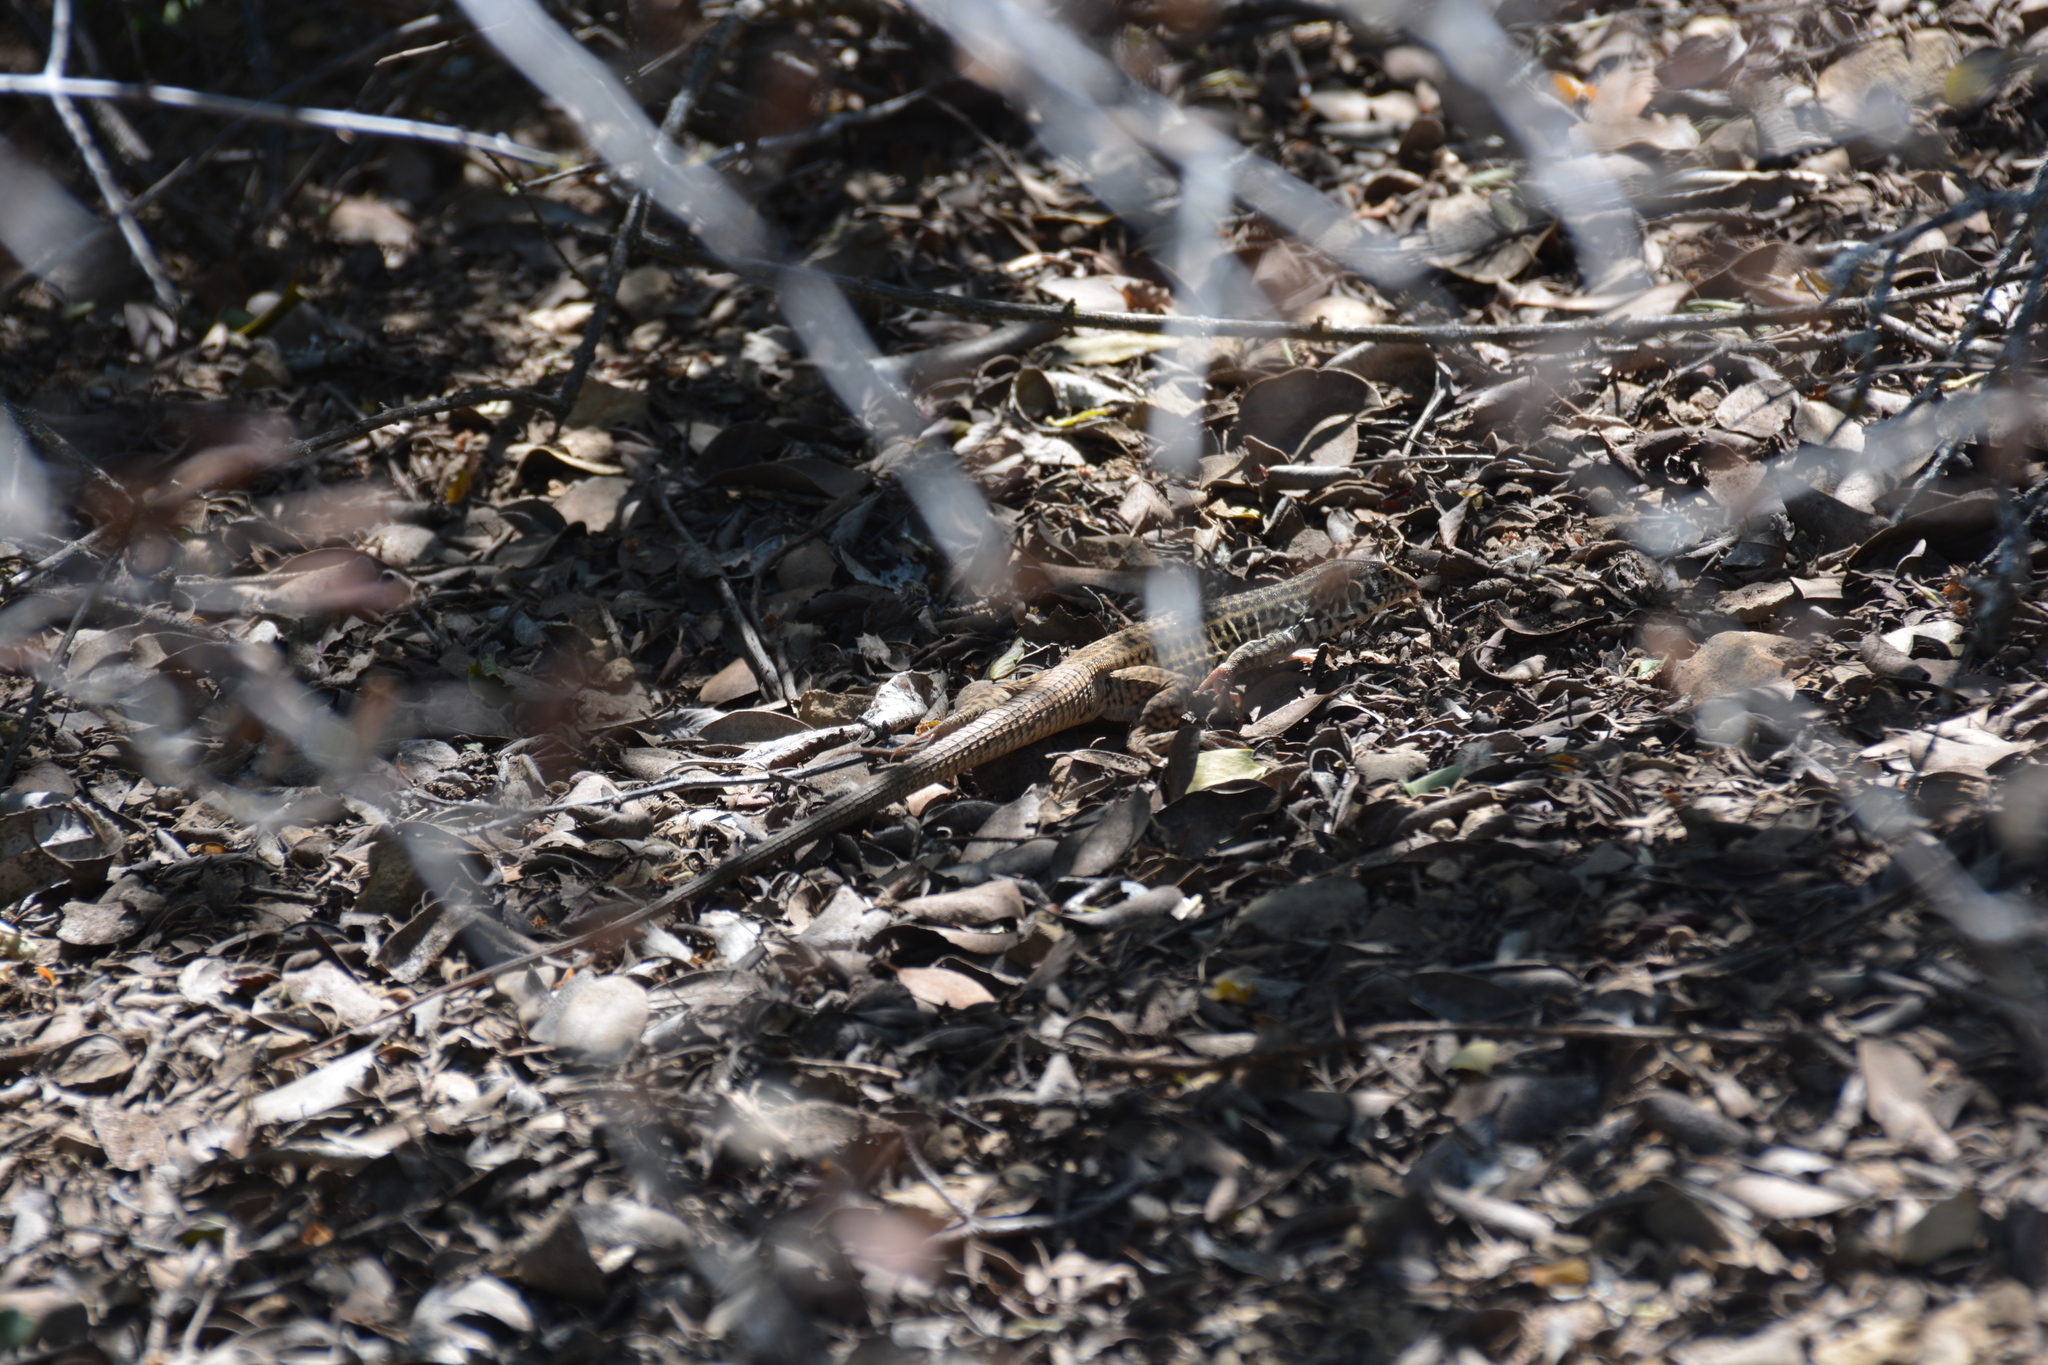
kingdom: Animalia
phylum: Chordata
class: Squamata
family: Teiidae
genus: Aspidoscelis
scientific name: Aspidoscelis tigris
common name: Tiger whiptail
